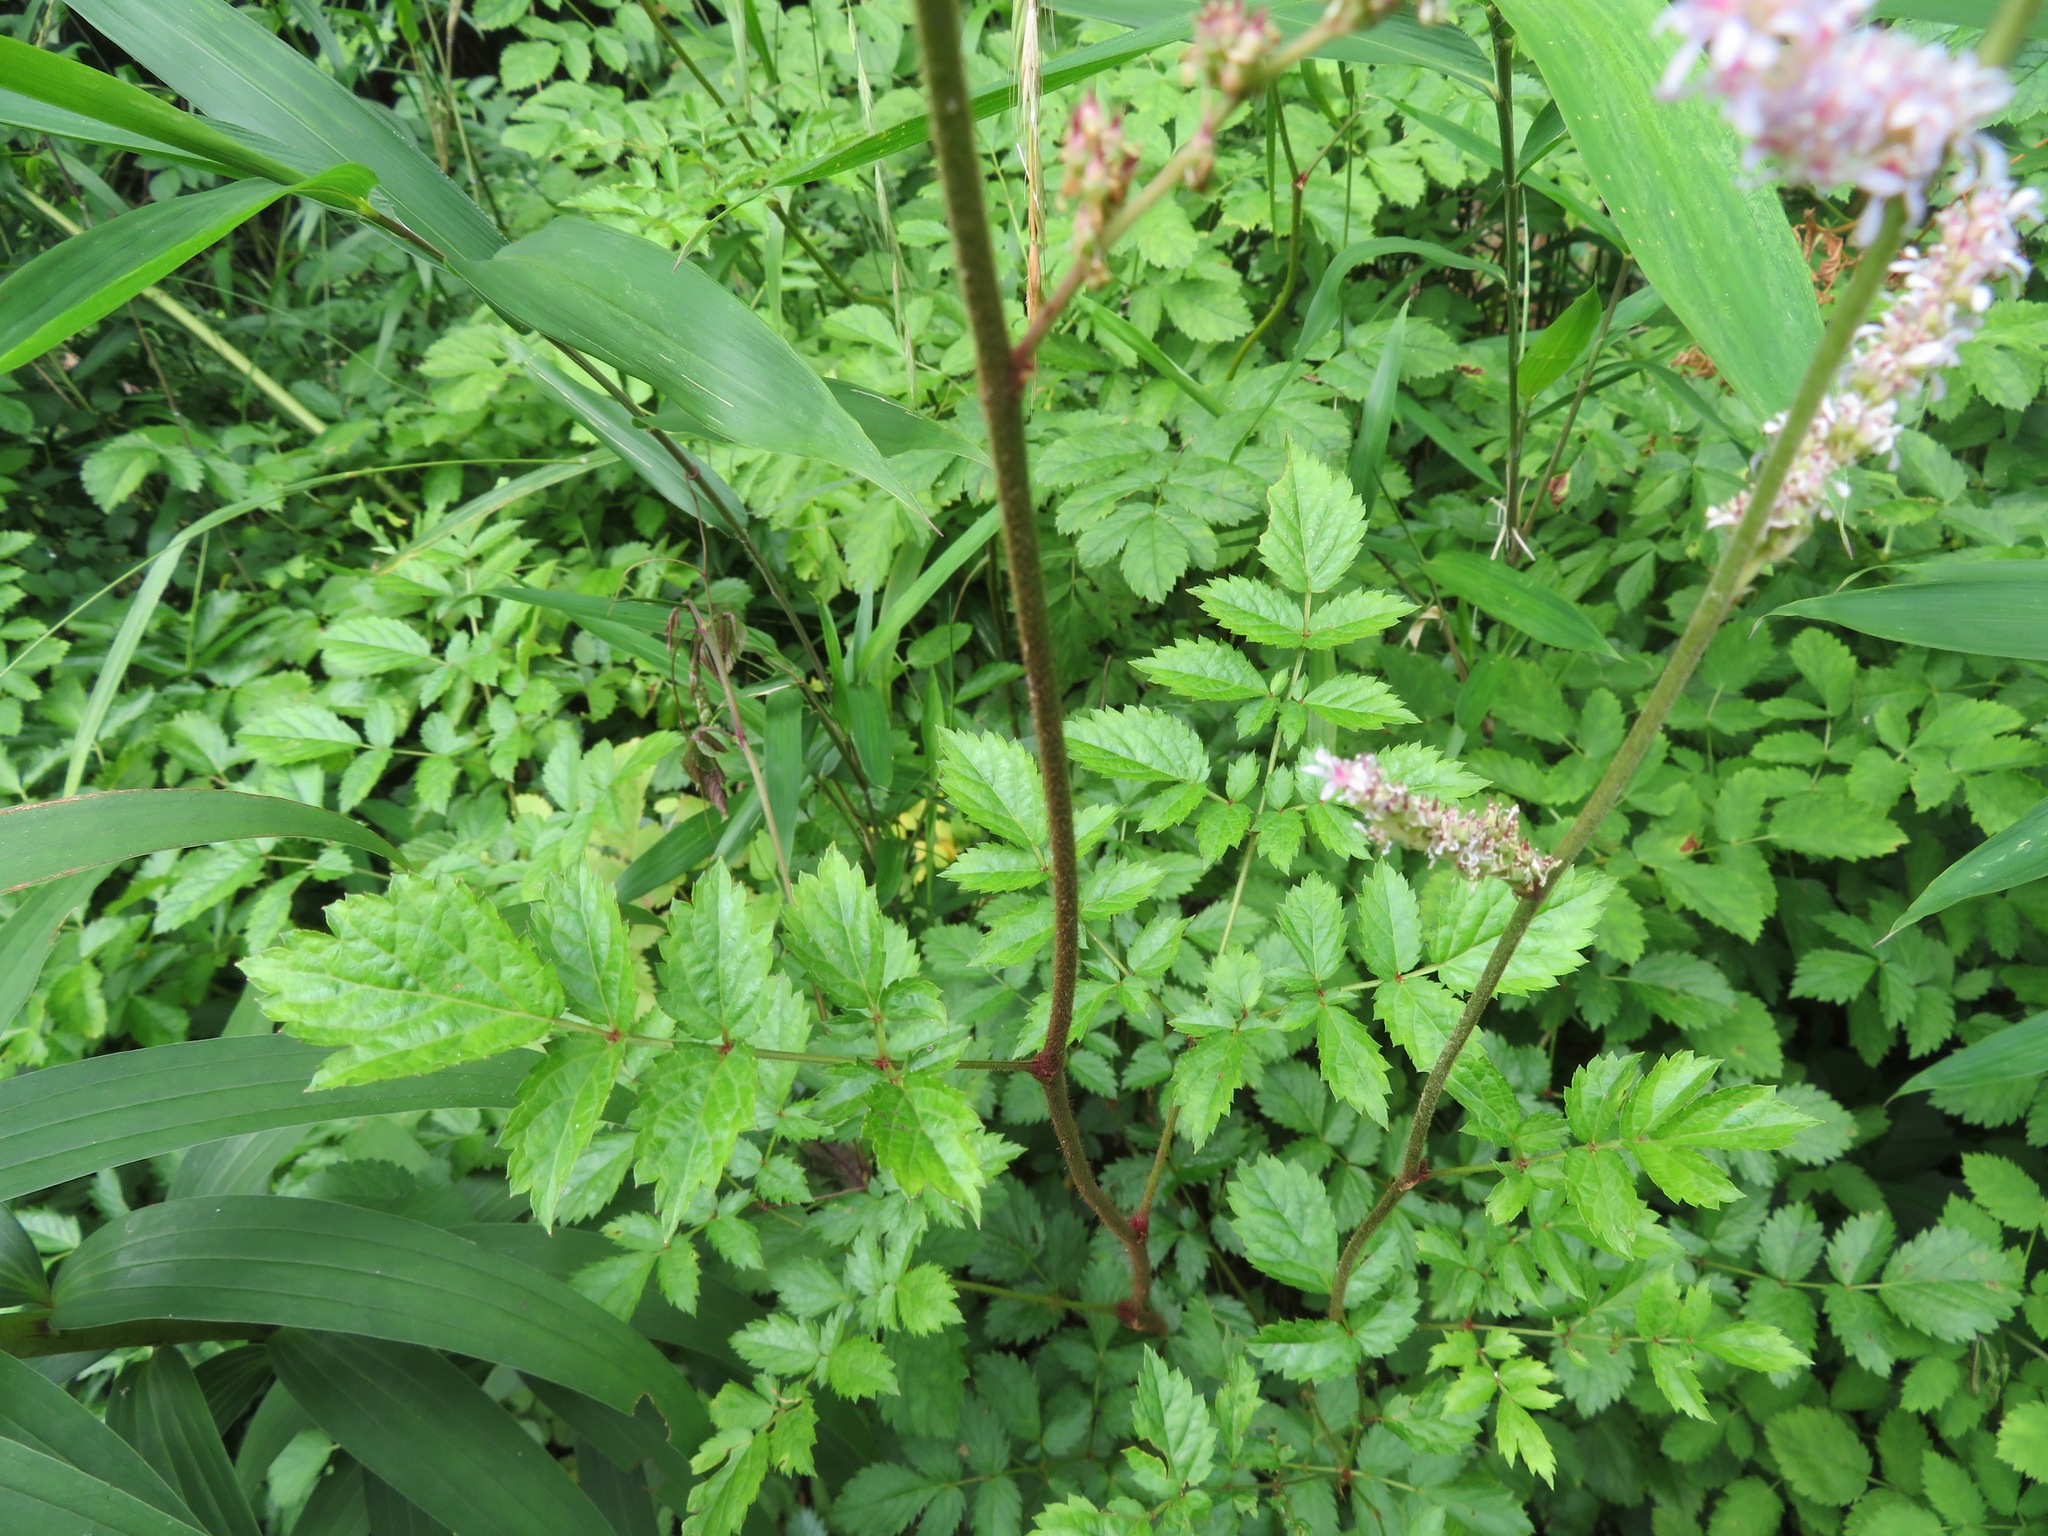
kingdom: Plantae
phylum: Tracheophyta
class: Magnoliopsida
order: Saxifragales
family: Saxifragaceae
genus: Astilbe
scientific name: Astilbe microphylla
